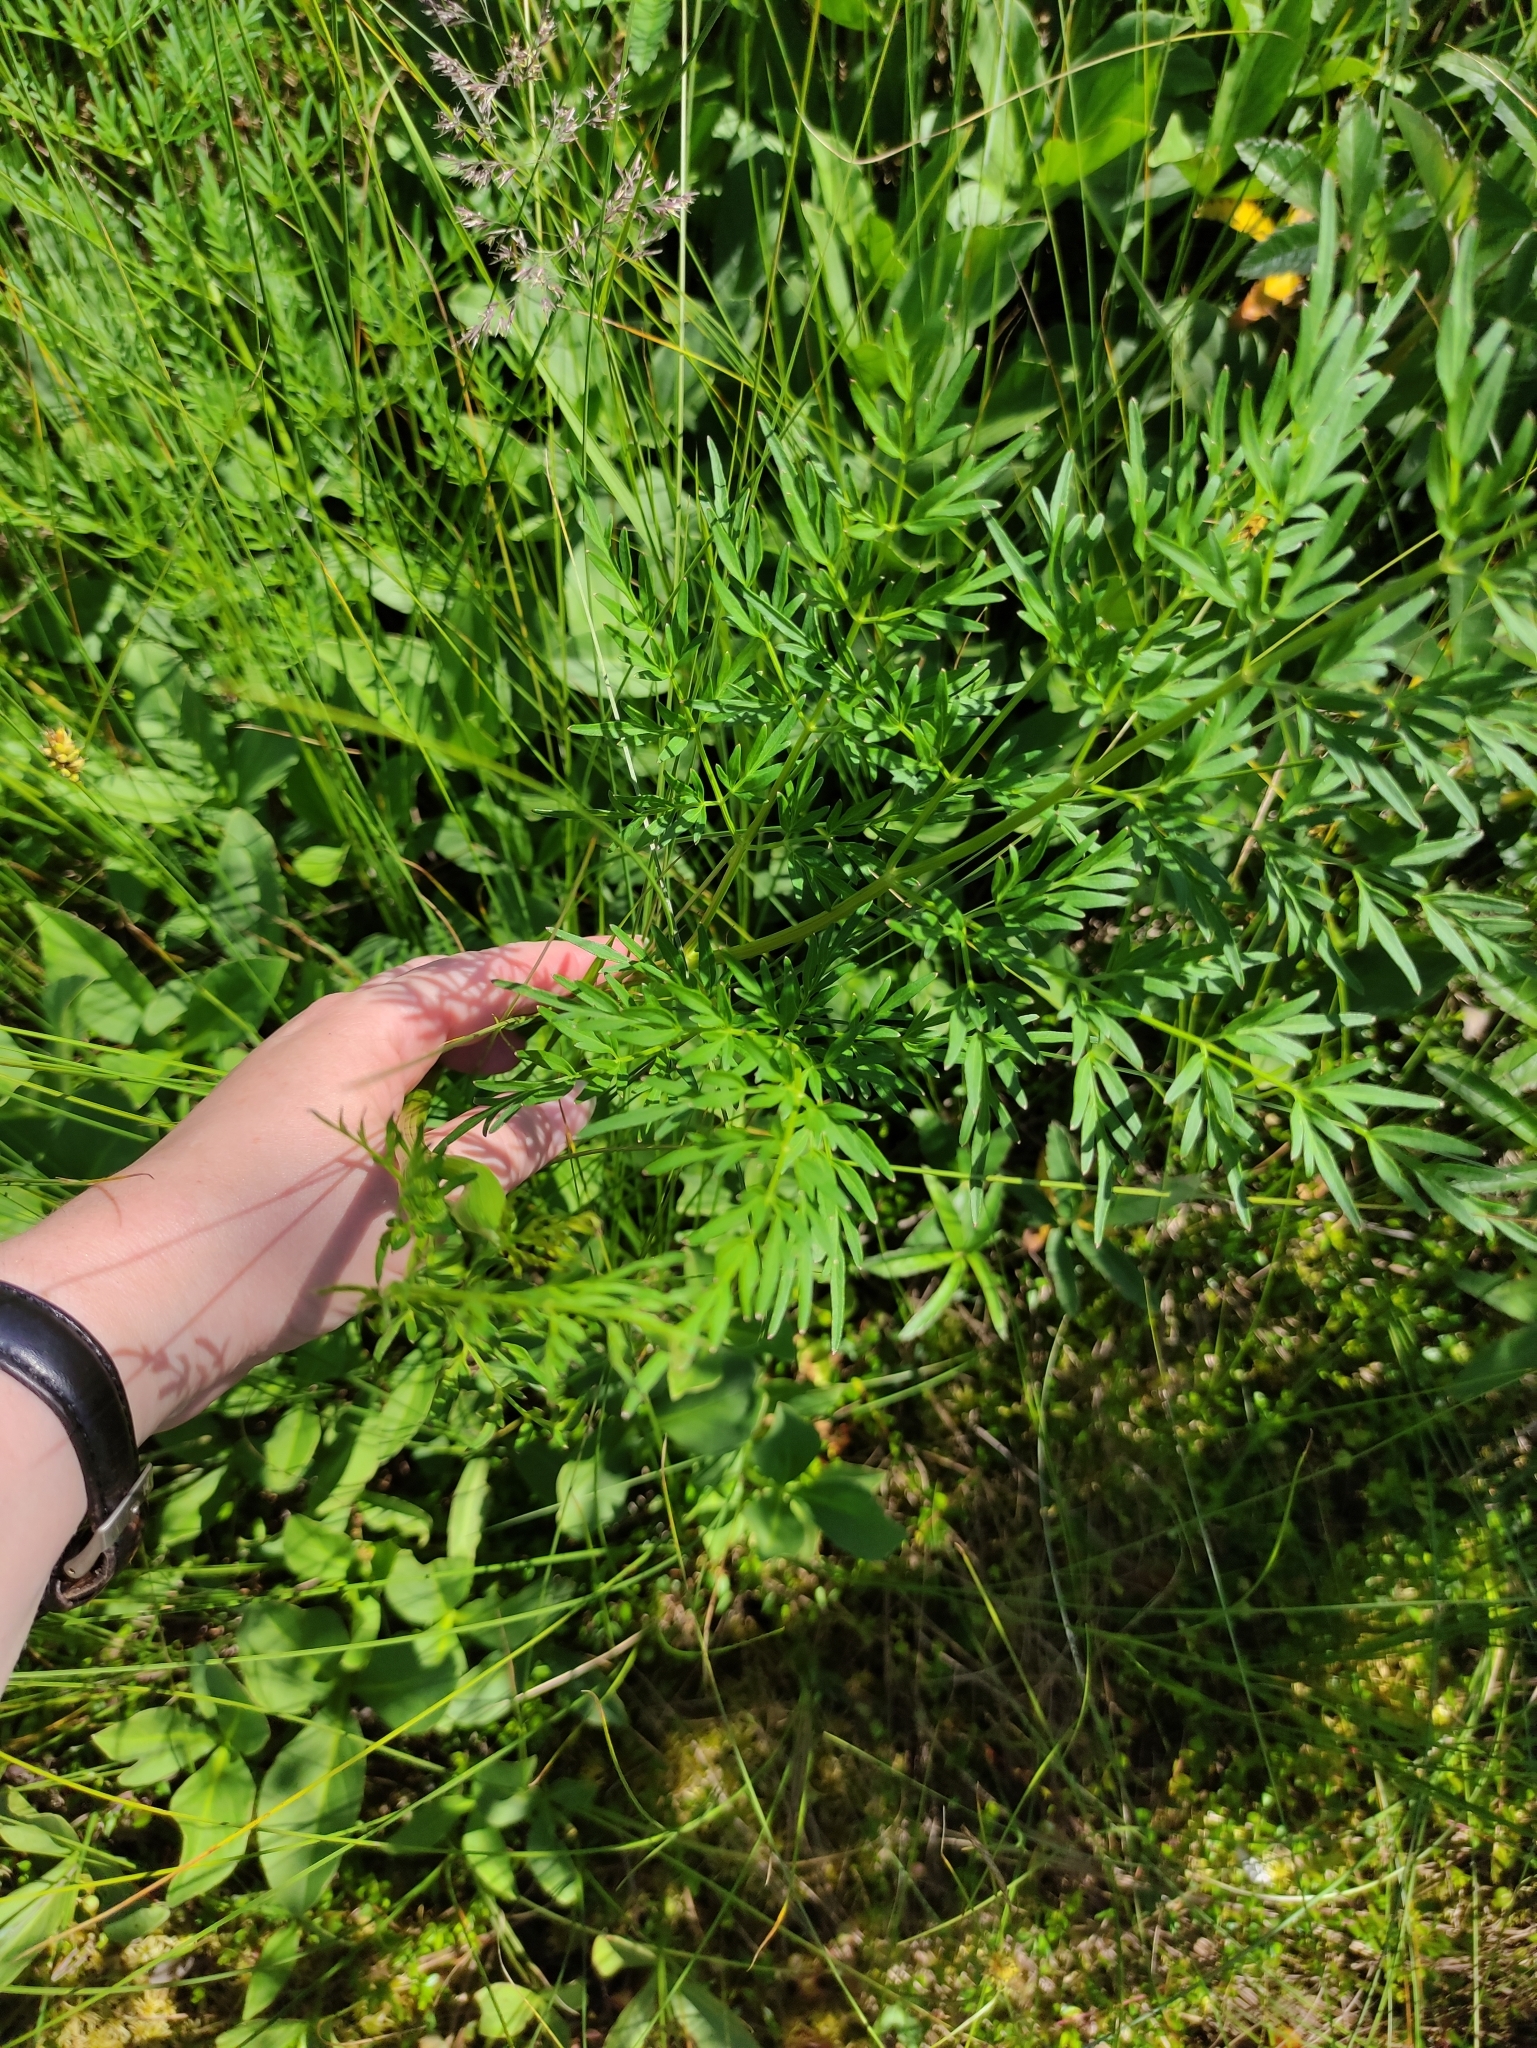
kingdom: Plantae
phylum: Tracheophyta
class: Magnoliopsida
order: Apiales
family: Apiaceae
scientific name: Apiaceae
